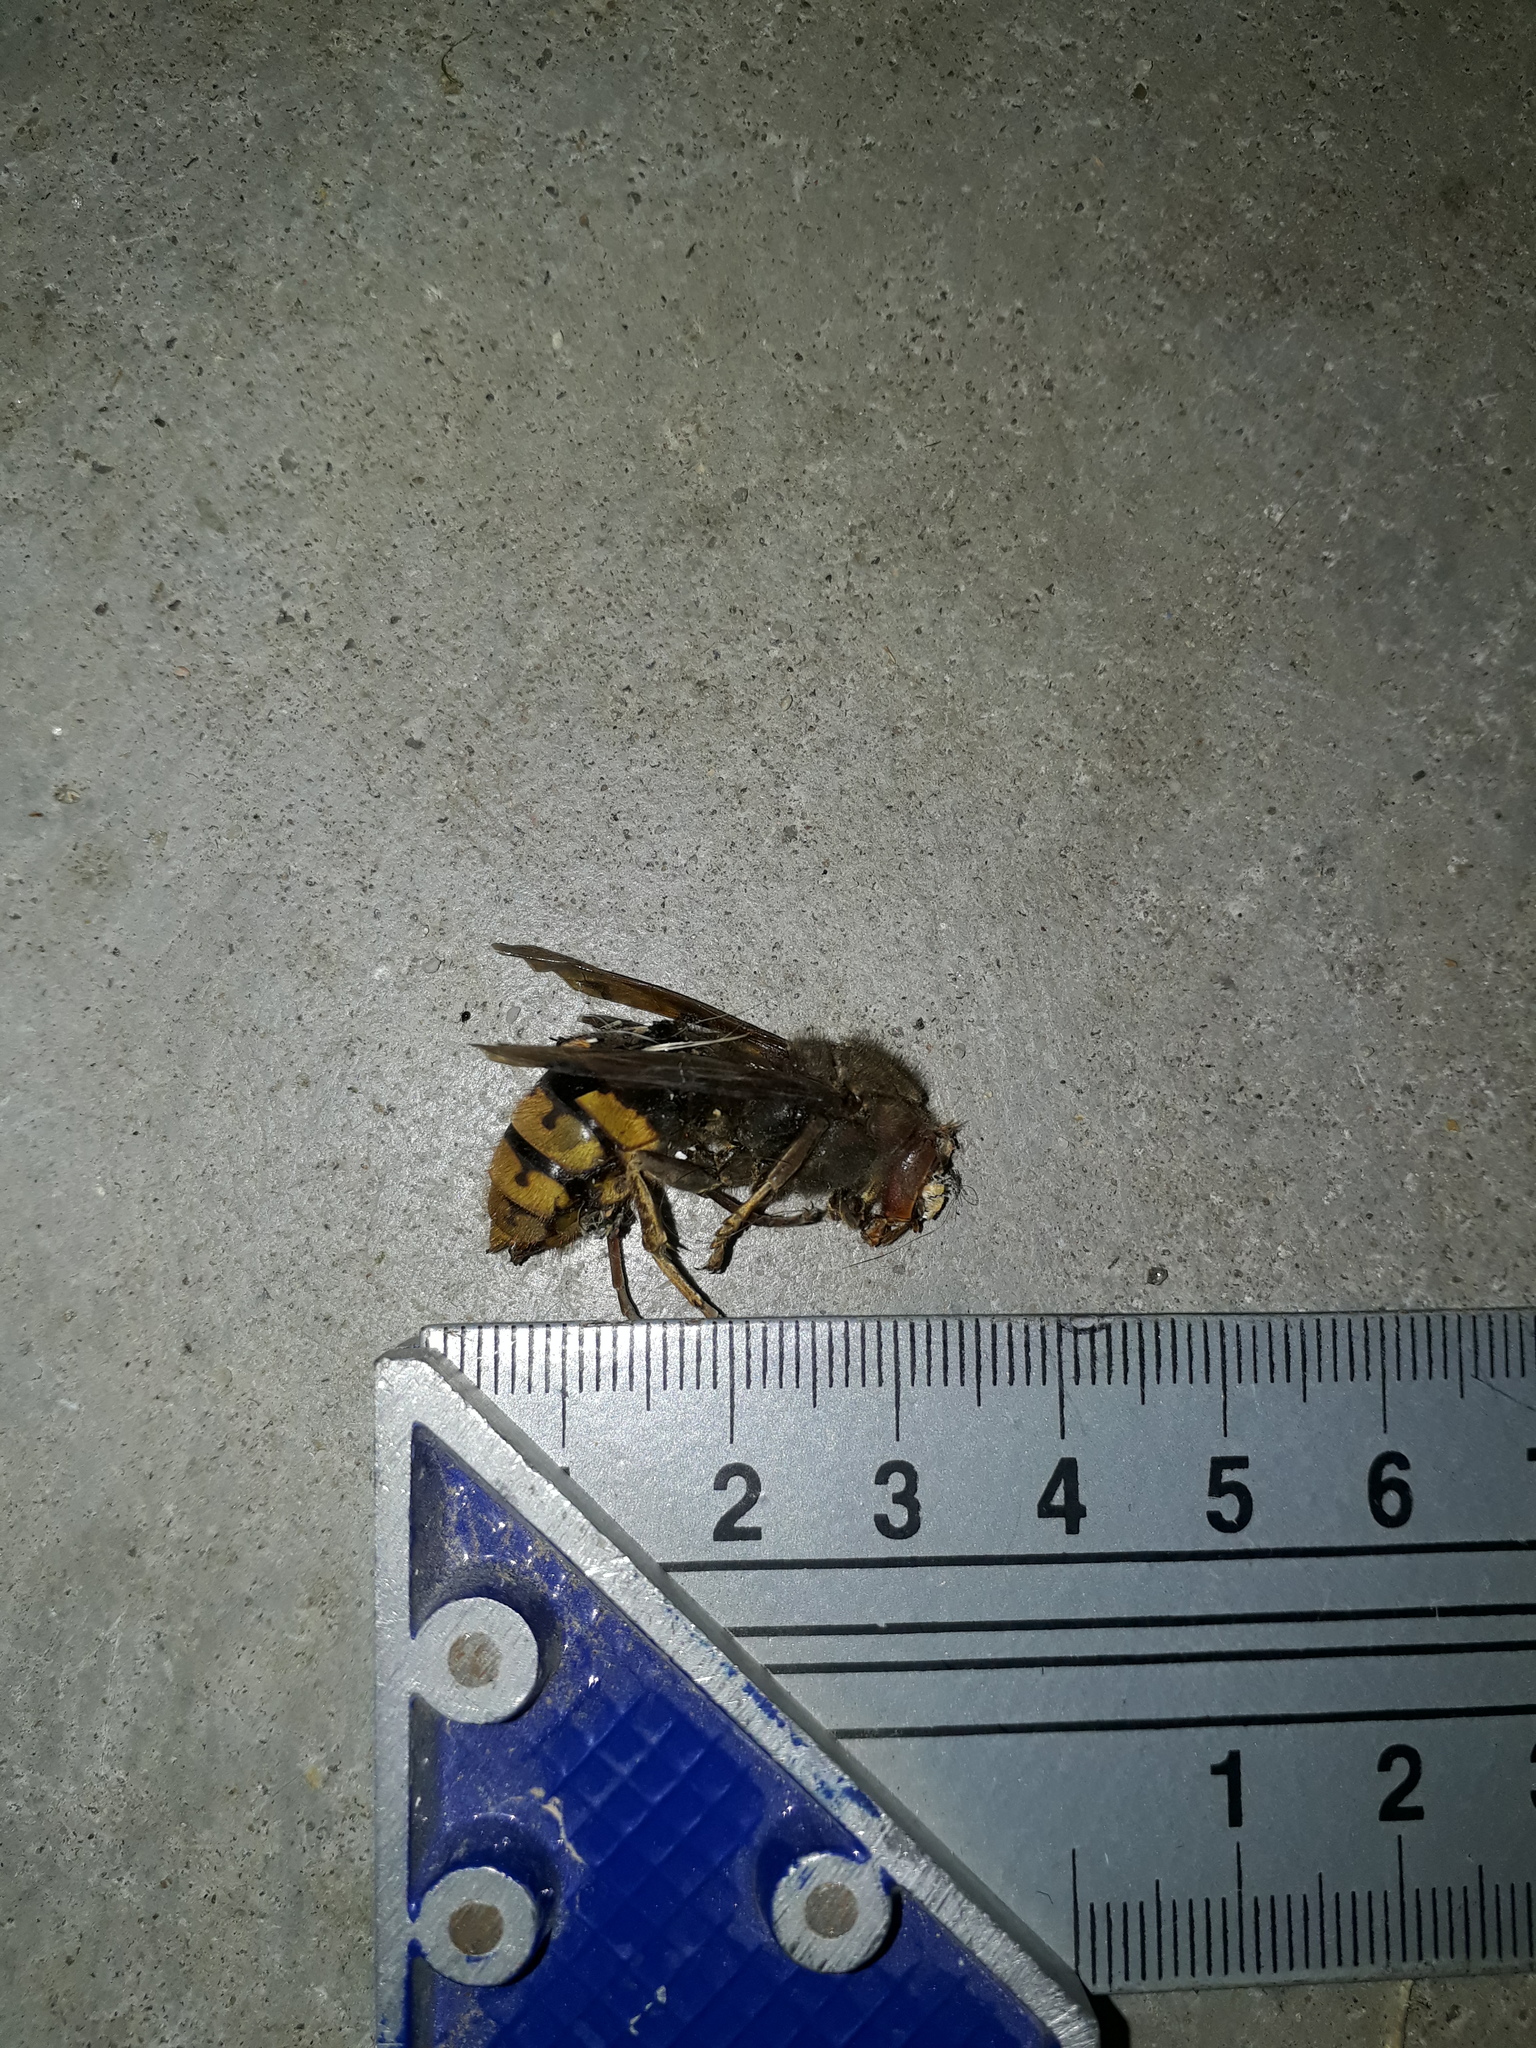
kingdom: Animalia
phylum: Arthropoda
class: Insecta
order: Hymenoptera
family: Vespidae
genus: Vespa
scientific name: Vespa crabro
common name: Hornet
